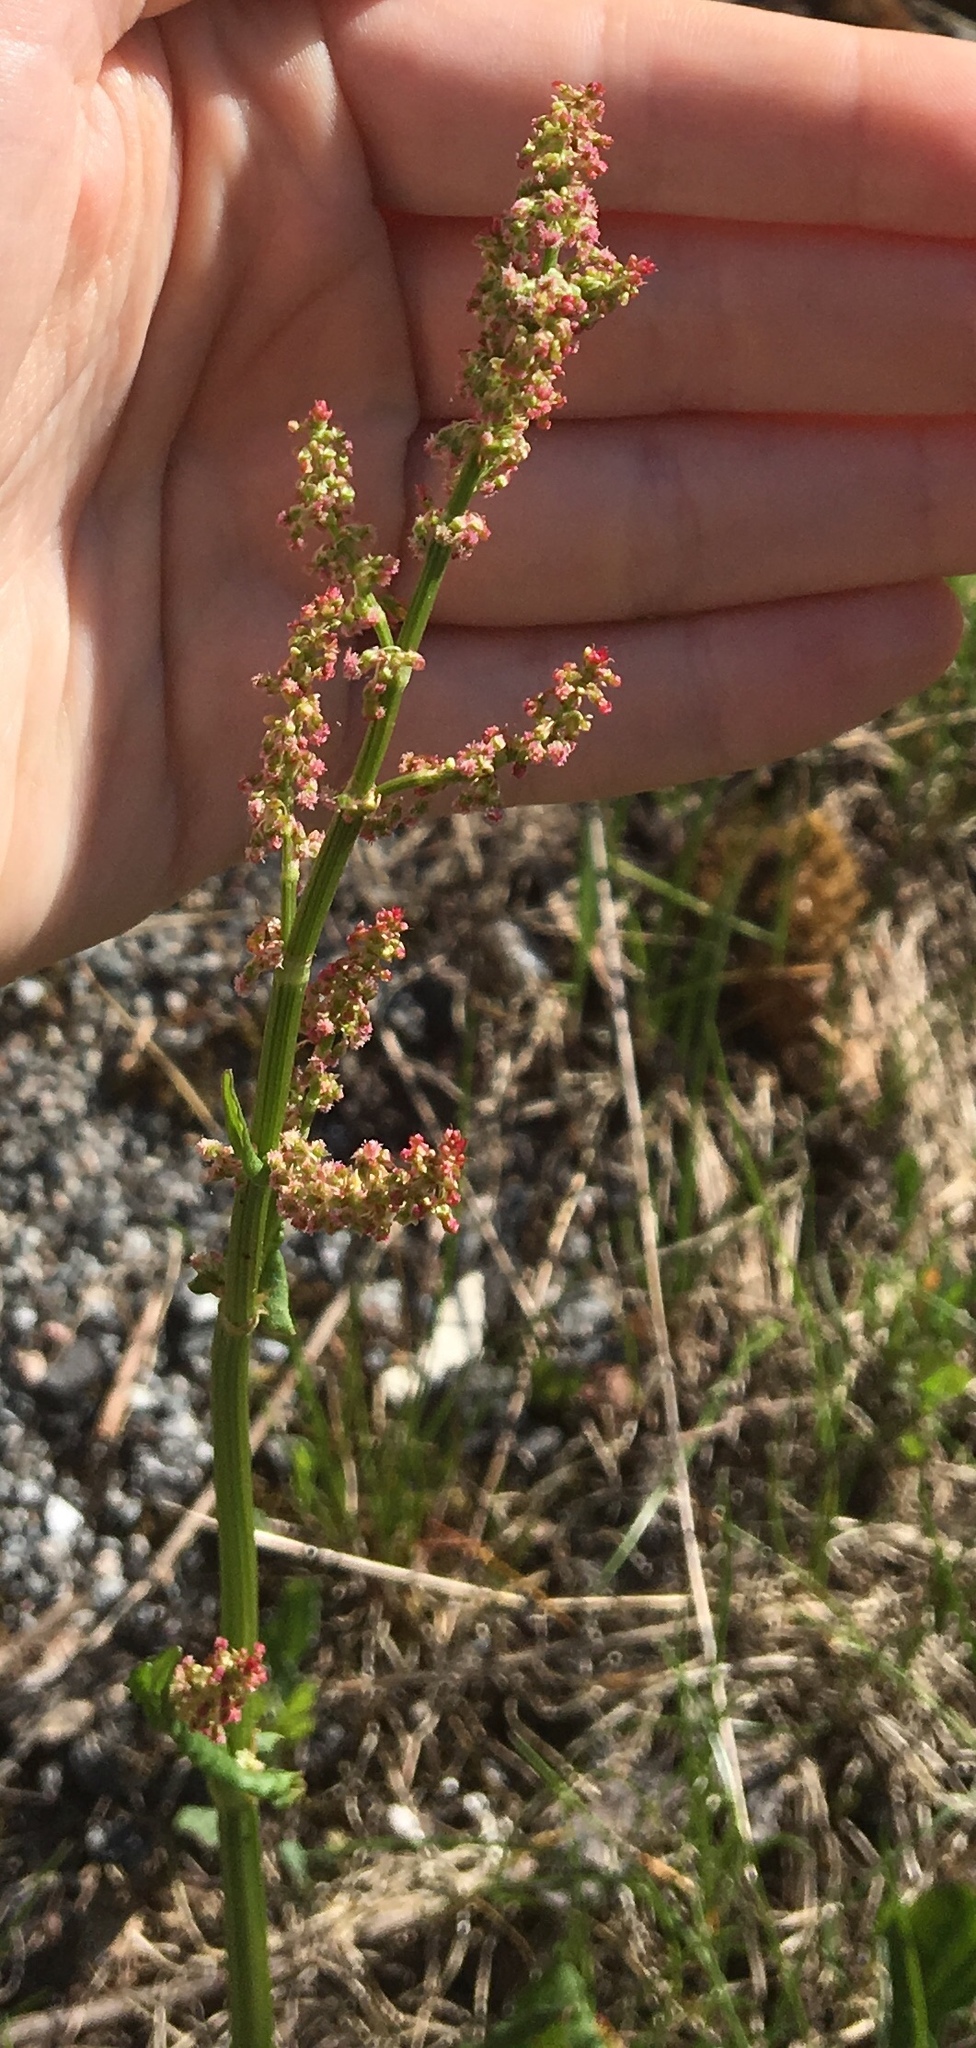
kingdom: Plantae
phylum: Tracheophyta
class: Magnoliopsida
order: Caryophyllales
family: Polygonaceae
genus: Rumex
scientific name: Rumex acetosa
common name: Garden sorrel
